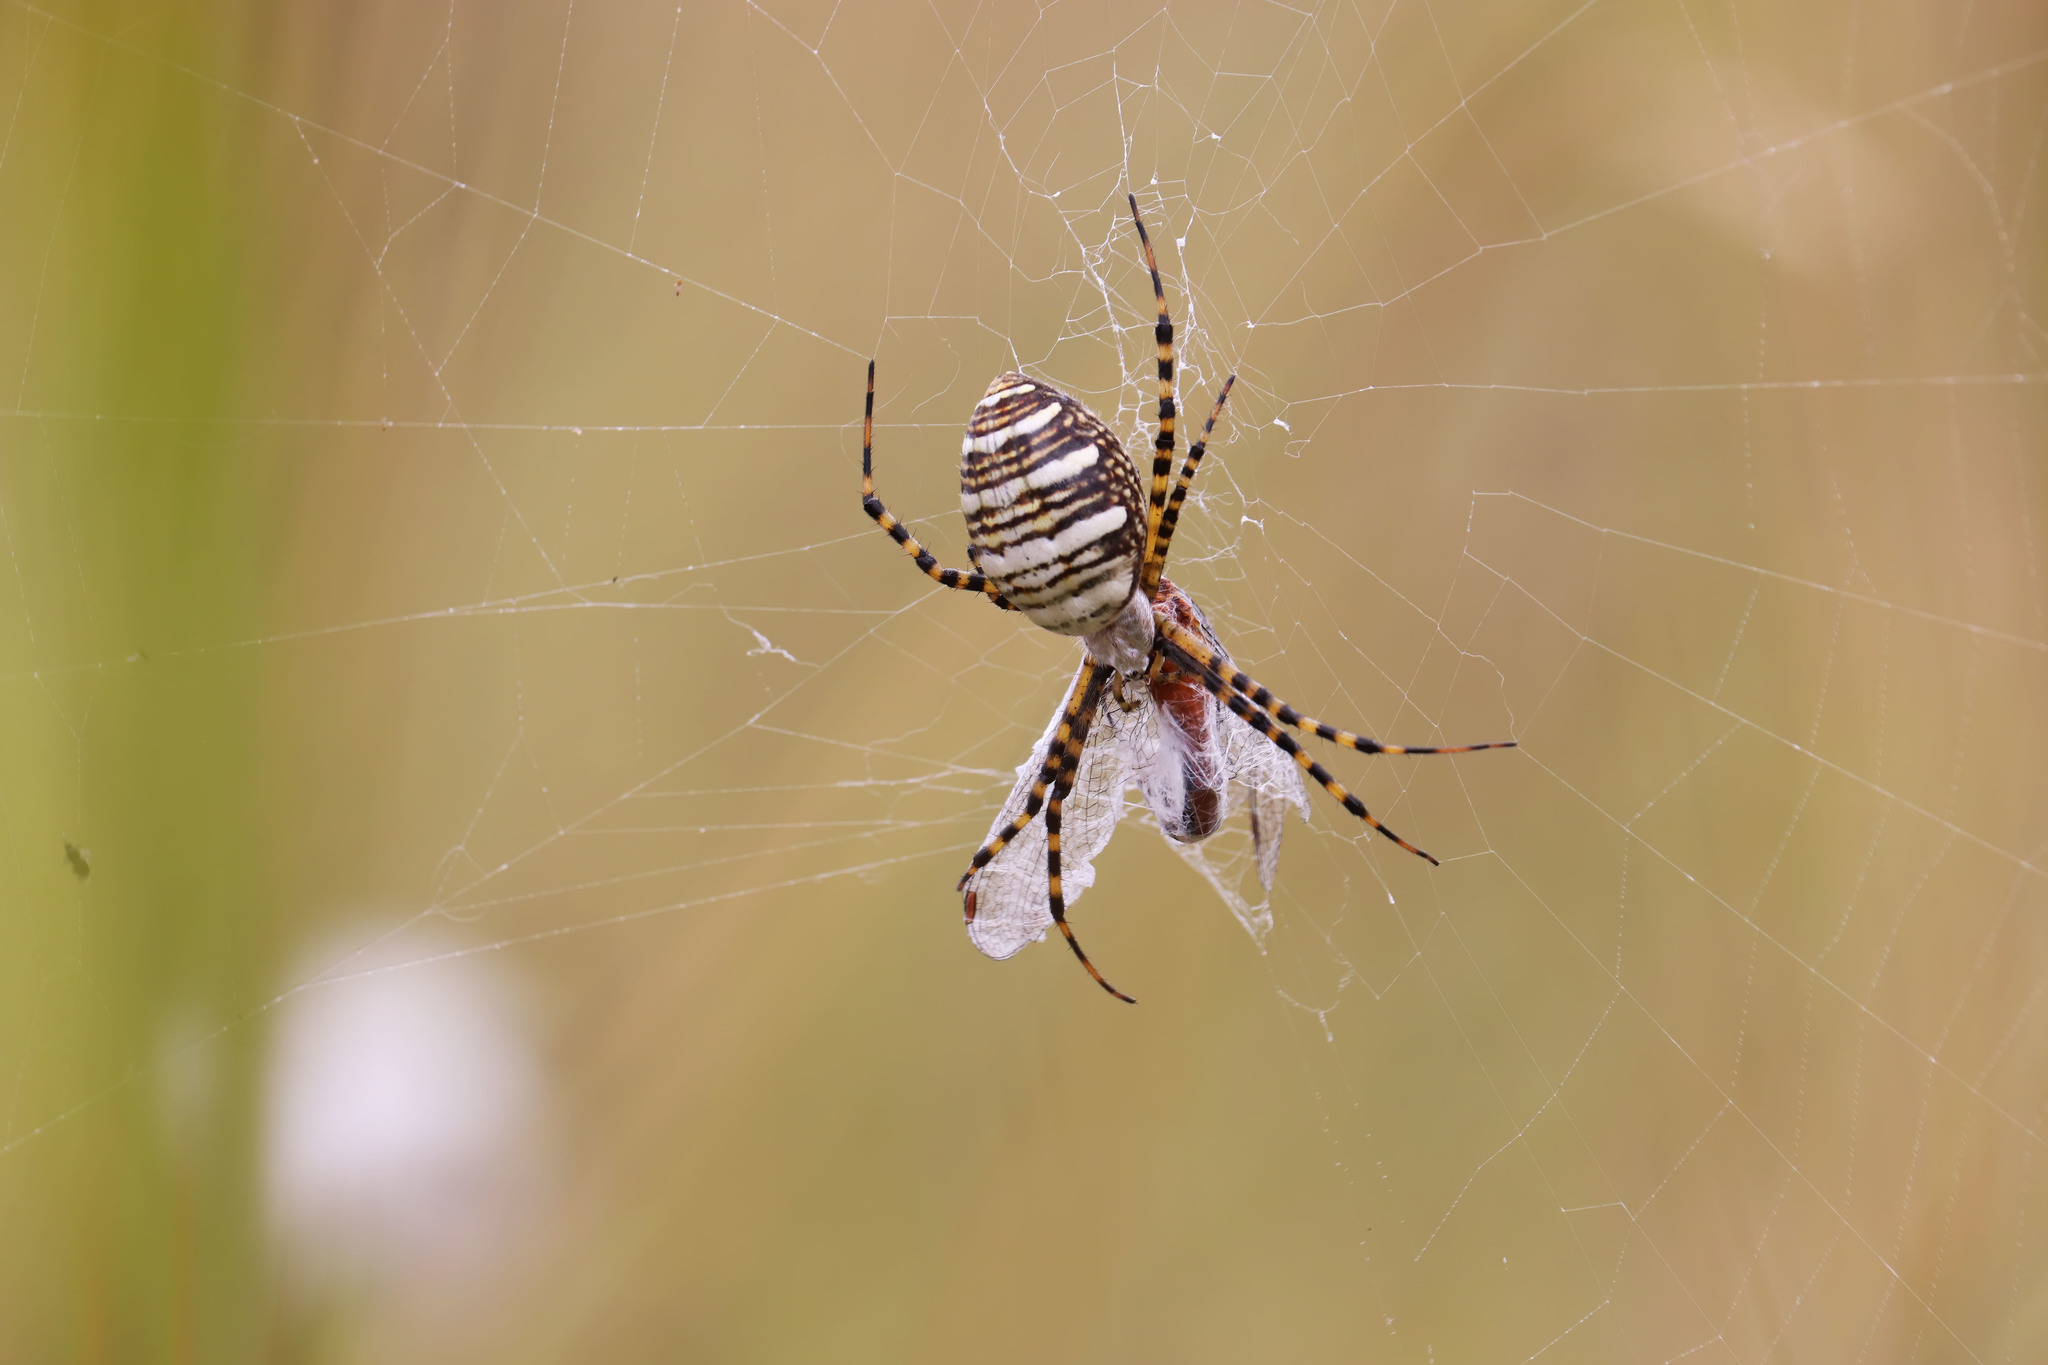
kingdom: Animalia
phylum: Arthropoda
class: Arachnida
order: Araneae
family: Araneidae
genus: Argiope
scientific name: Argiope trifasciata
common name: Banded garden spider
